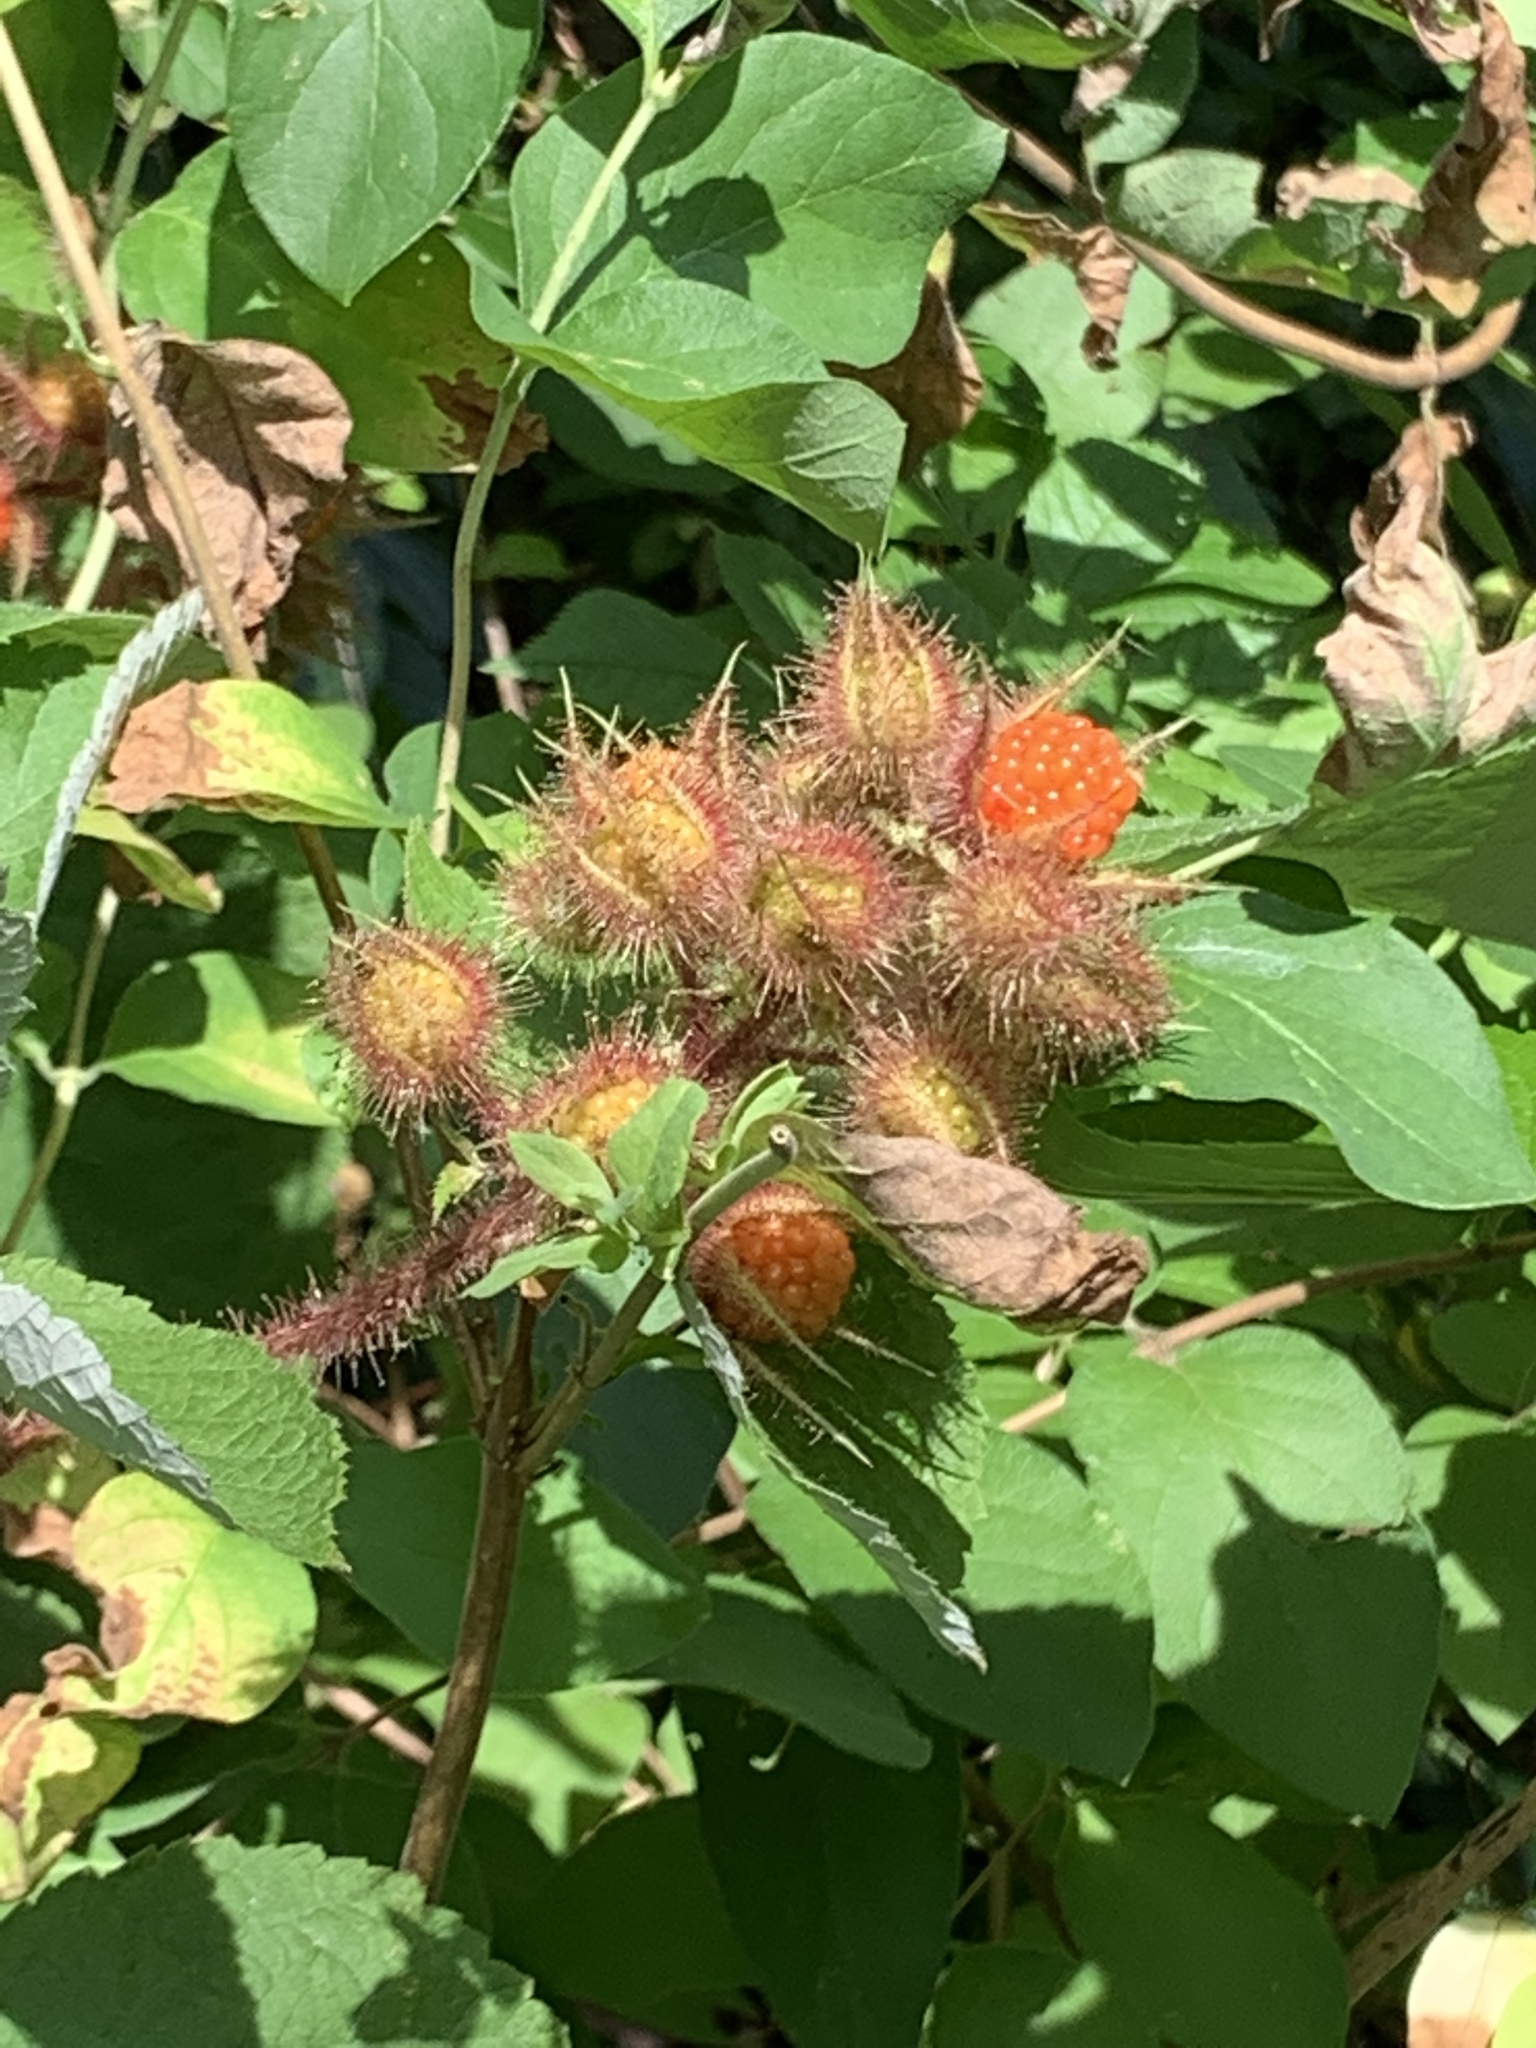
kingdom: Plantae
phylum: Tracheophyta
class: Magnoliopsida
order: Rosales
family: Rosaceae
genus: Rubus
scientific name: Rubus phoenicolasius
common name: Japanese wineberry
